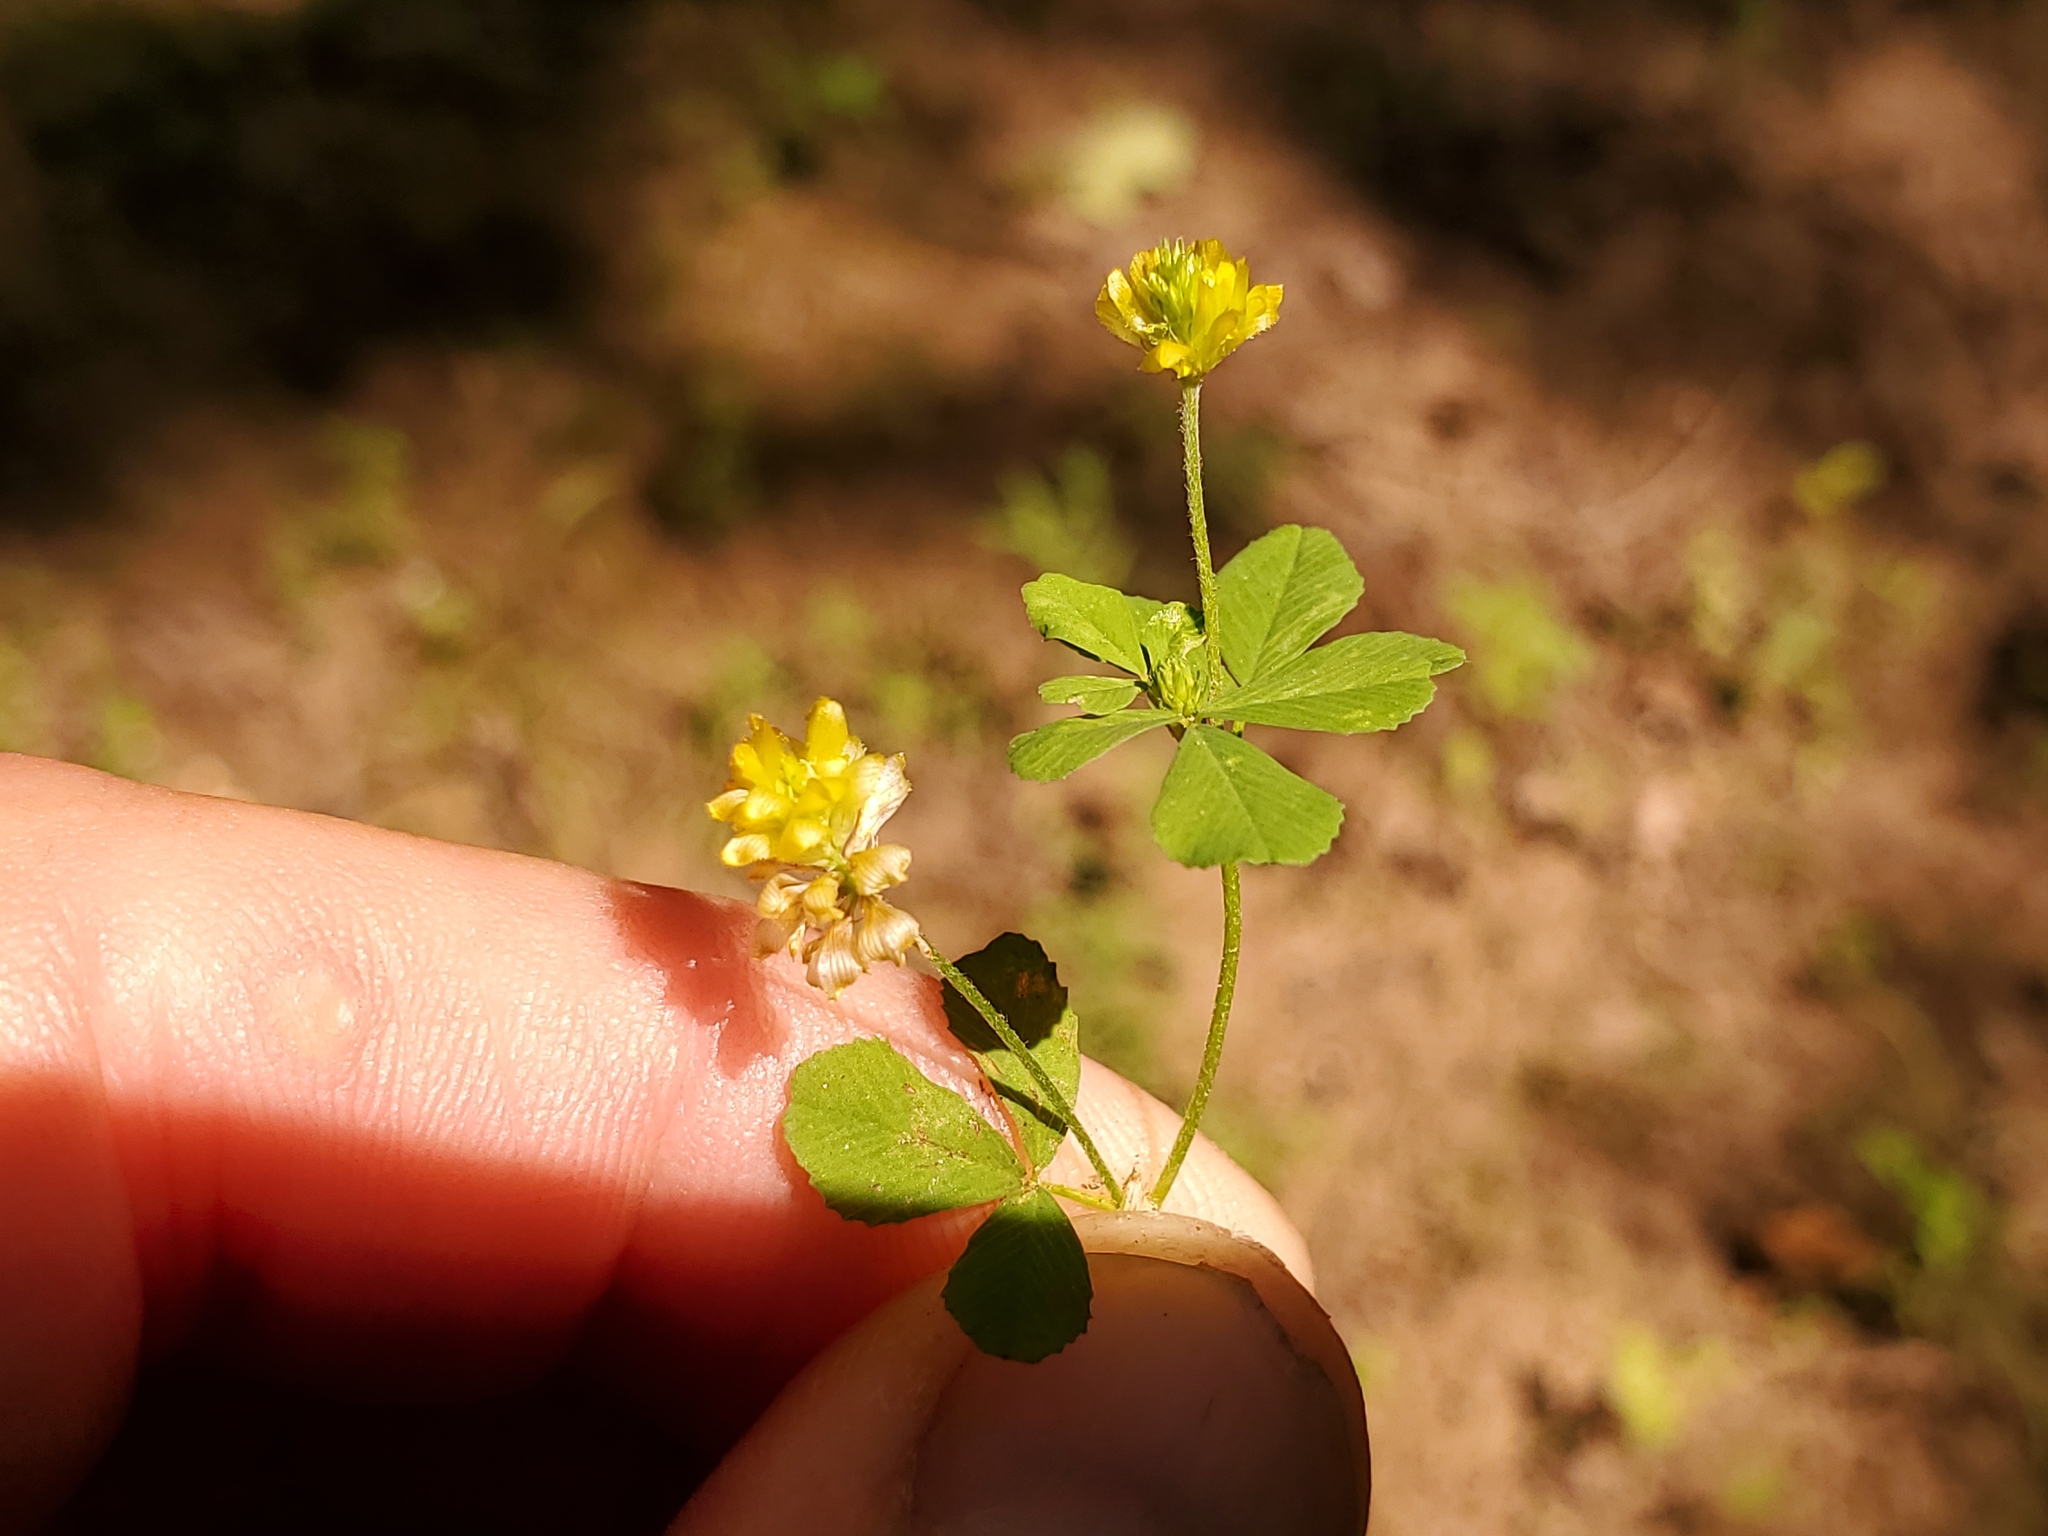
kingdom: Plantae
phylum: Tracheophyta
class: Magnoliopsida
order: Fabales
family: Fabaceae
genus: Trifolium
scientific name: Trifolium campestre
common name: Field clover
